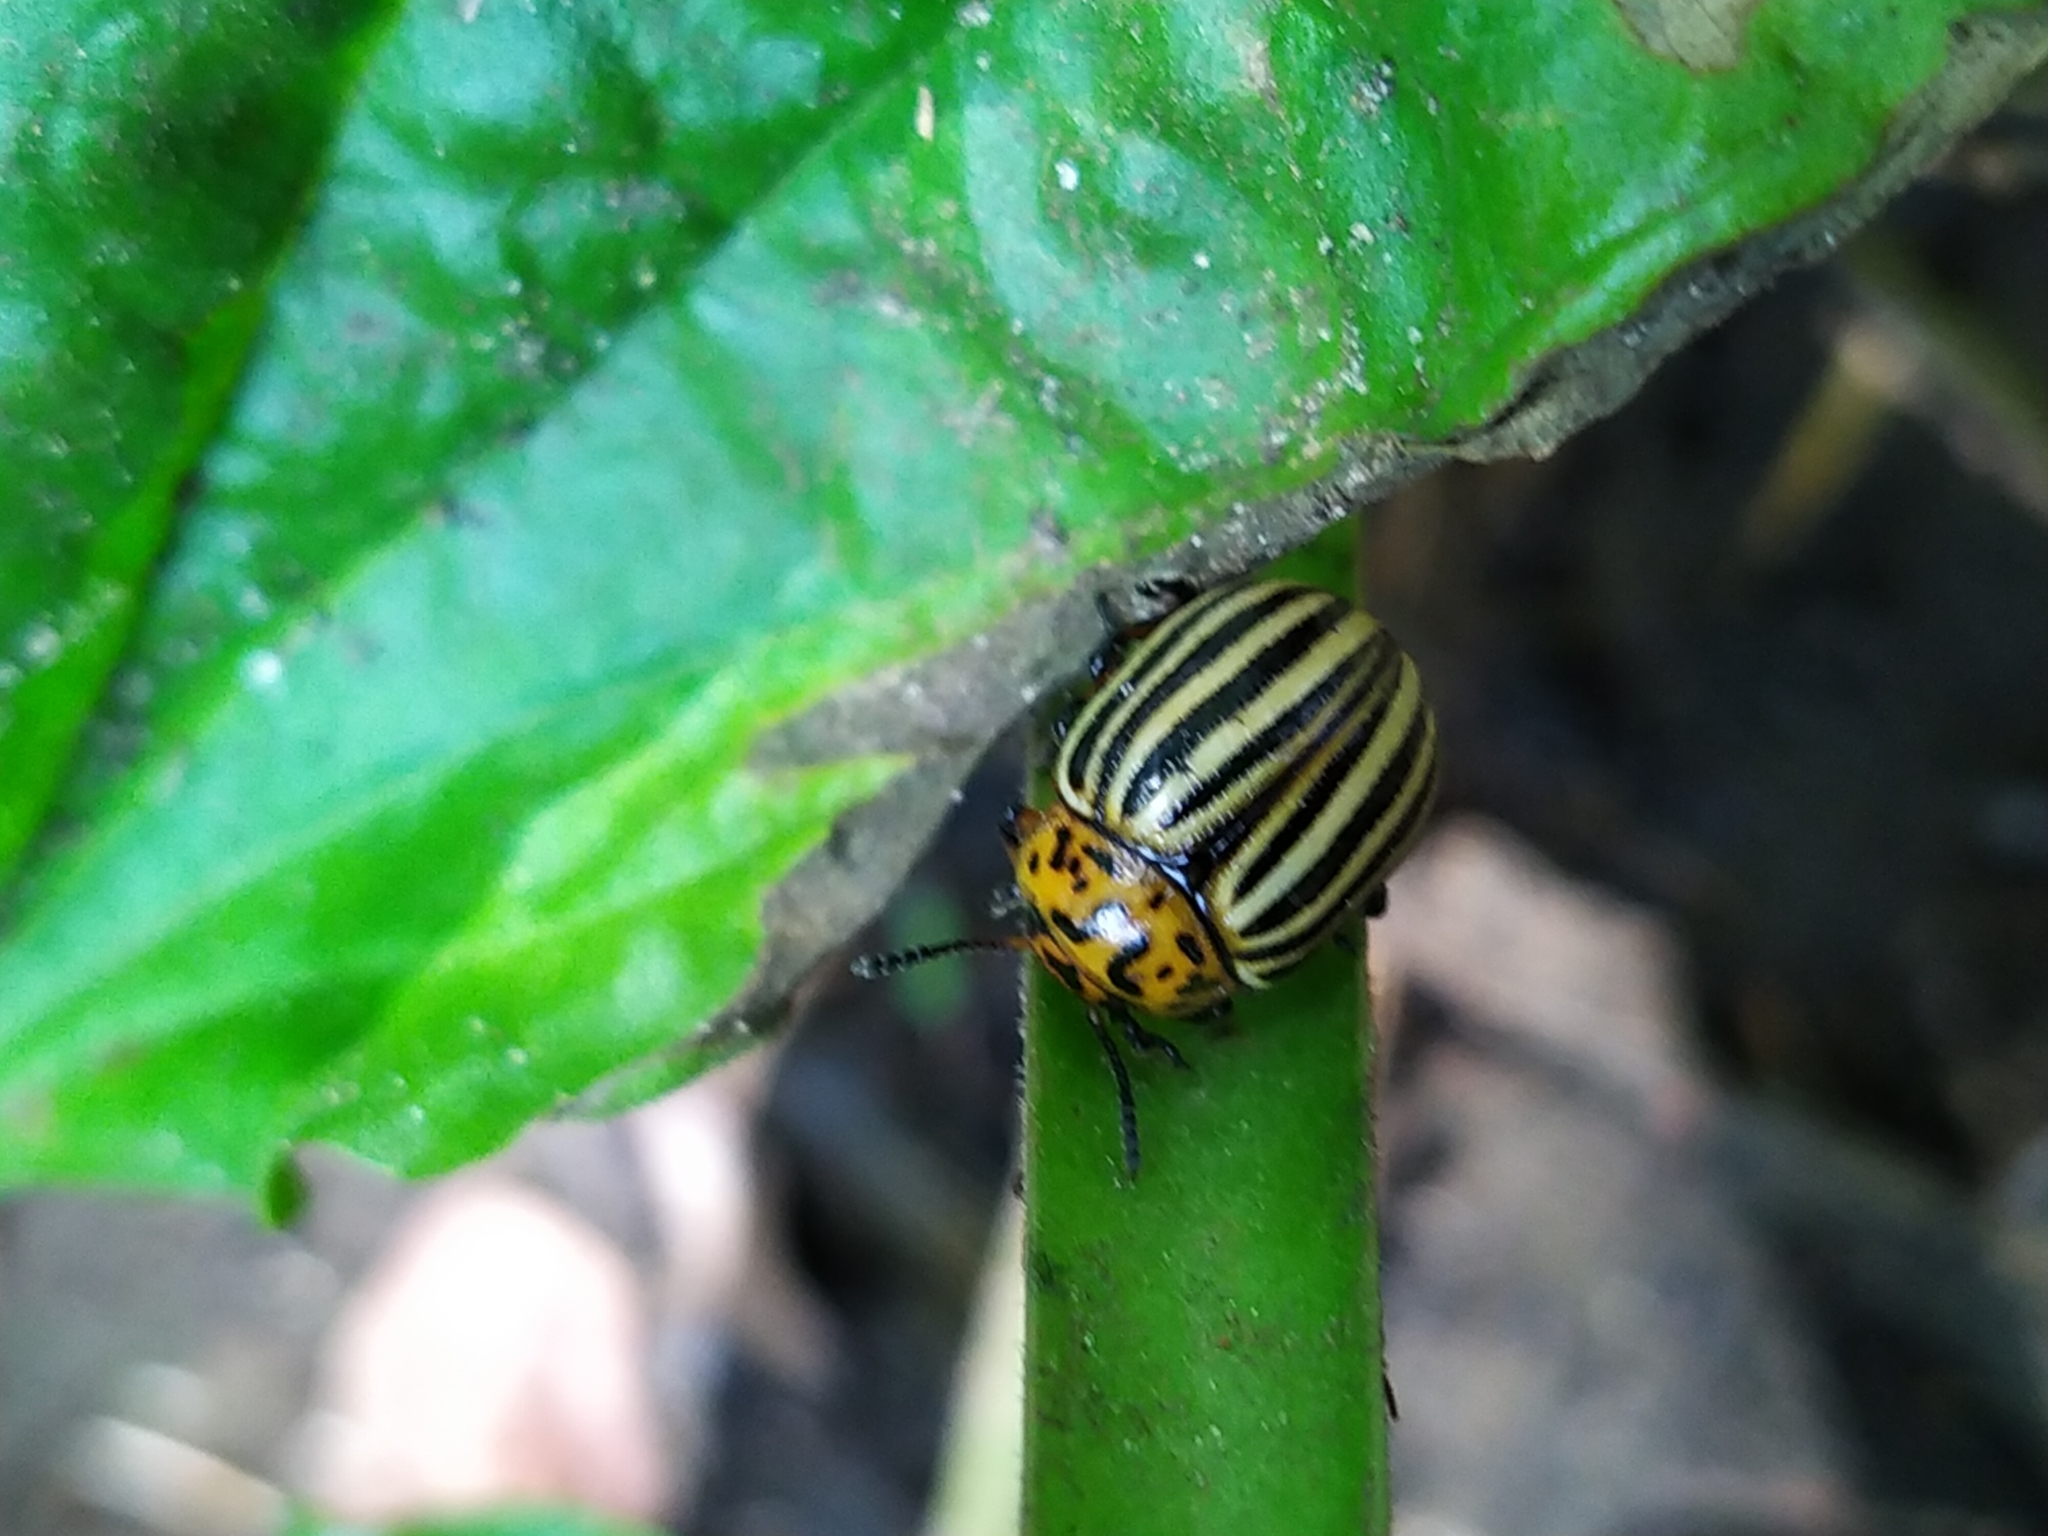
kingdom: Animalia
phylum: Arthropoda
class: Insecta
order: Coleoptera
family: Chrysomelidae
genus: Leptinotarsa
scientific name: Leptinotarsa decemlineata
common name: Colorado potato beetle
